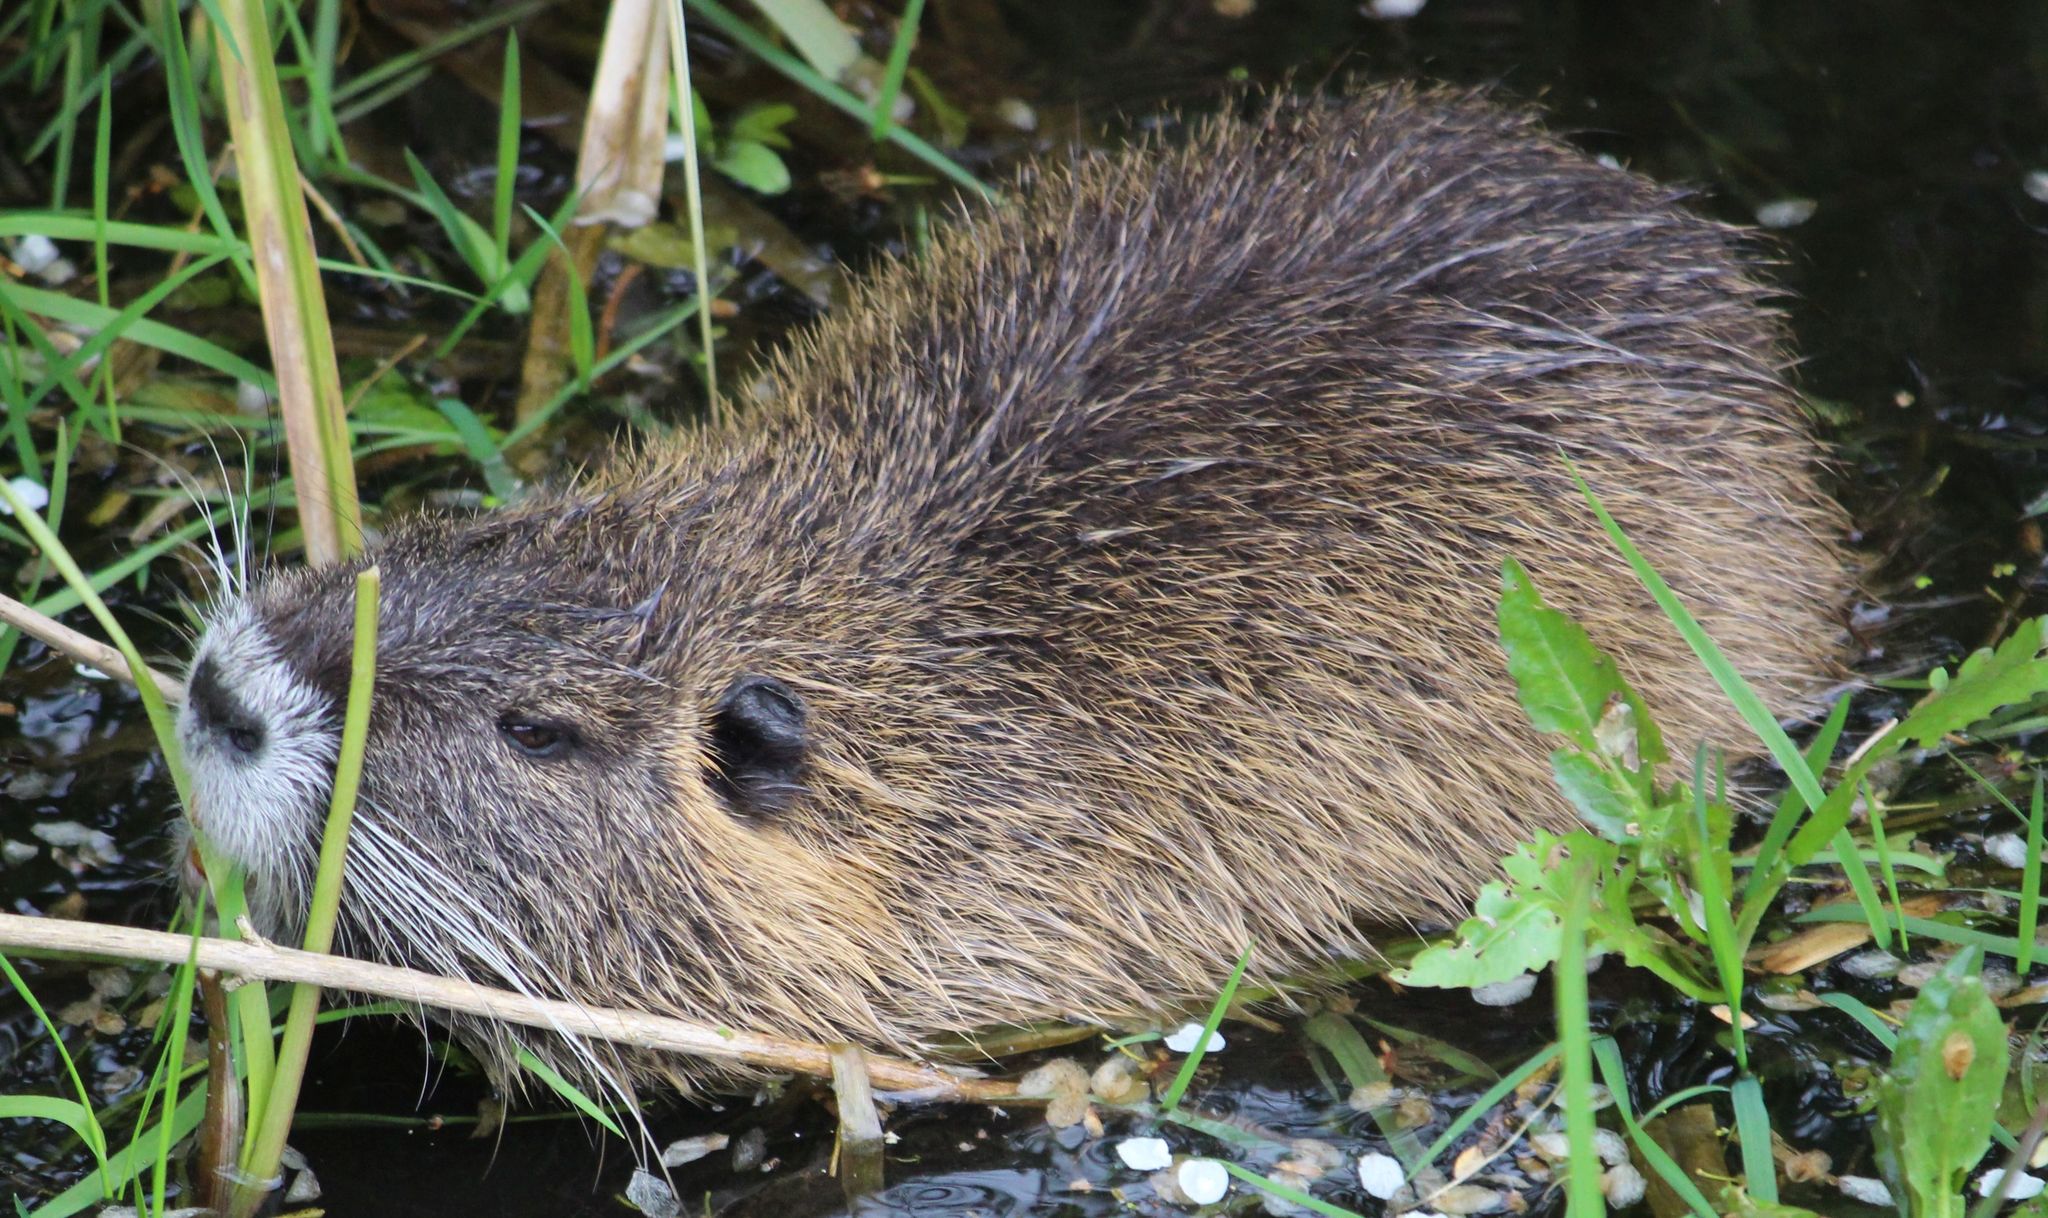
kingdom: Animalia
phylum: Chordata
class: Mammalia
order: Rodentia
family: Myocastoridae
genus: Myocastor
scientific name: Myocastor coypus
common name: Coypu
